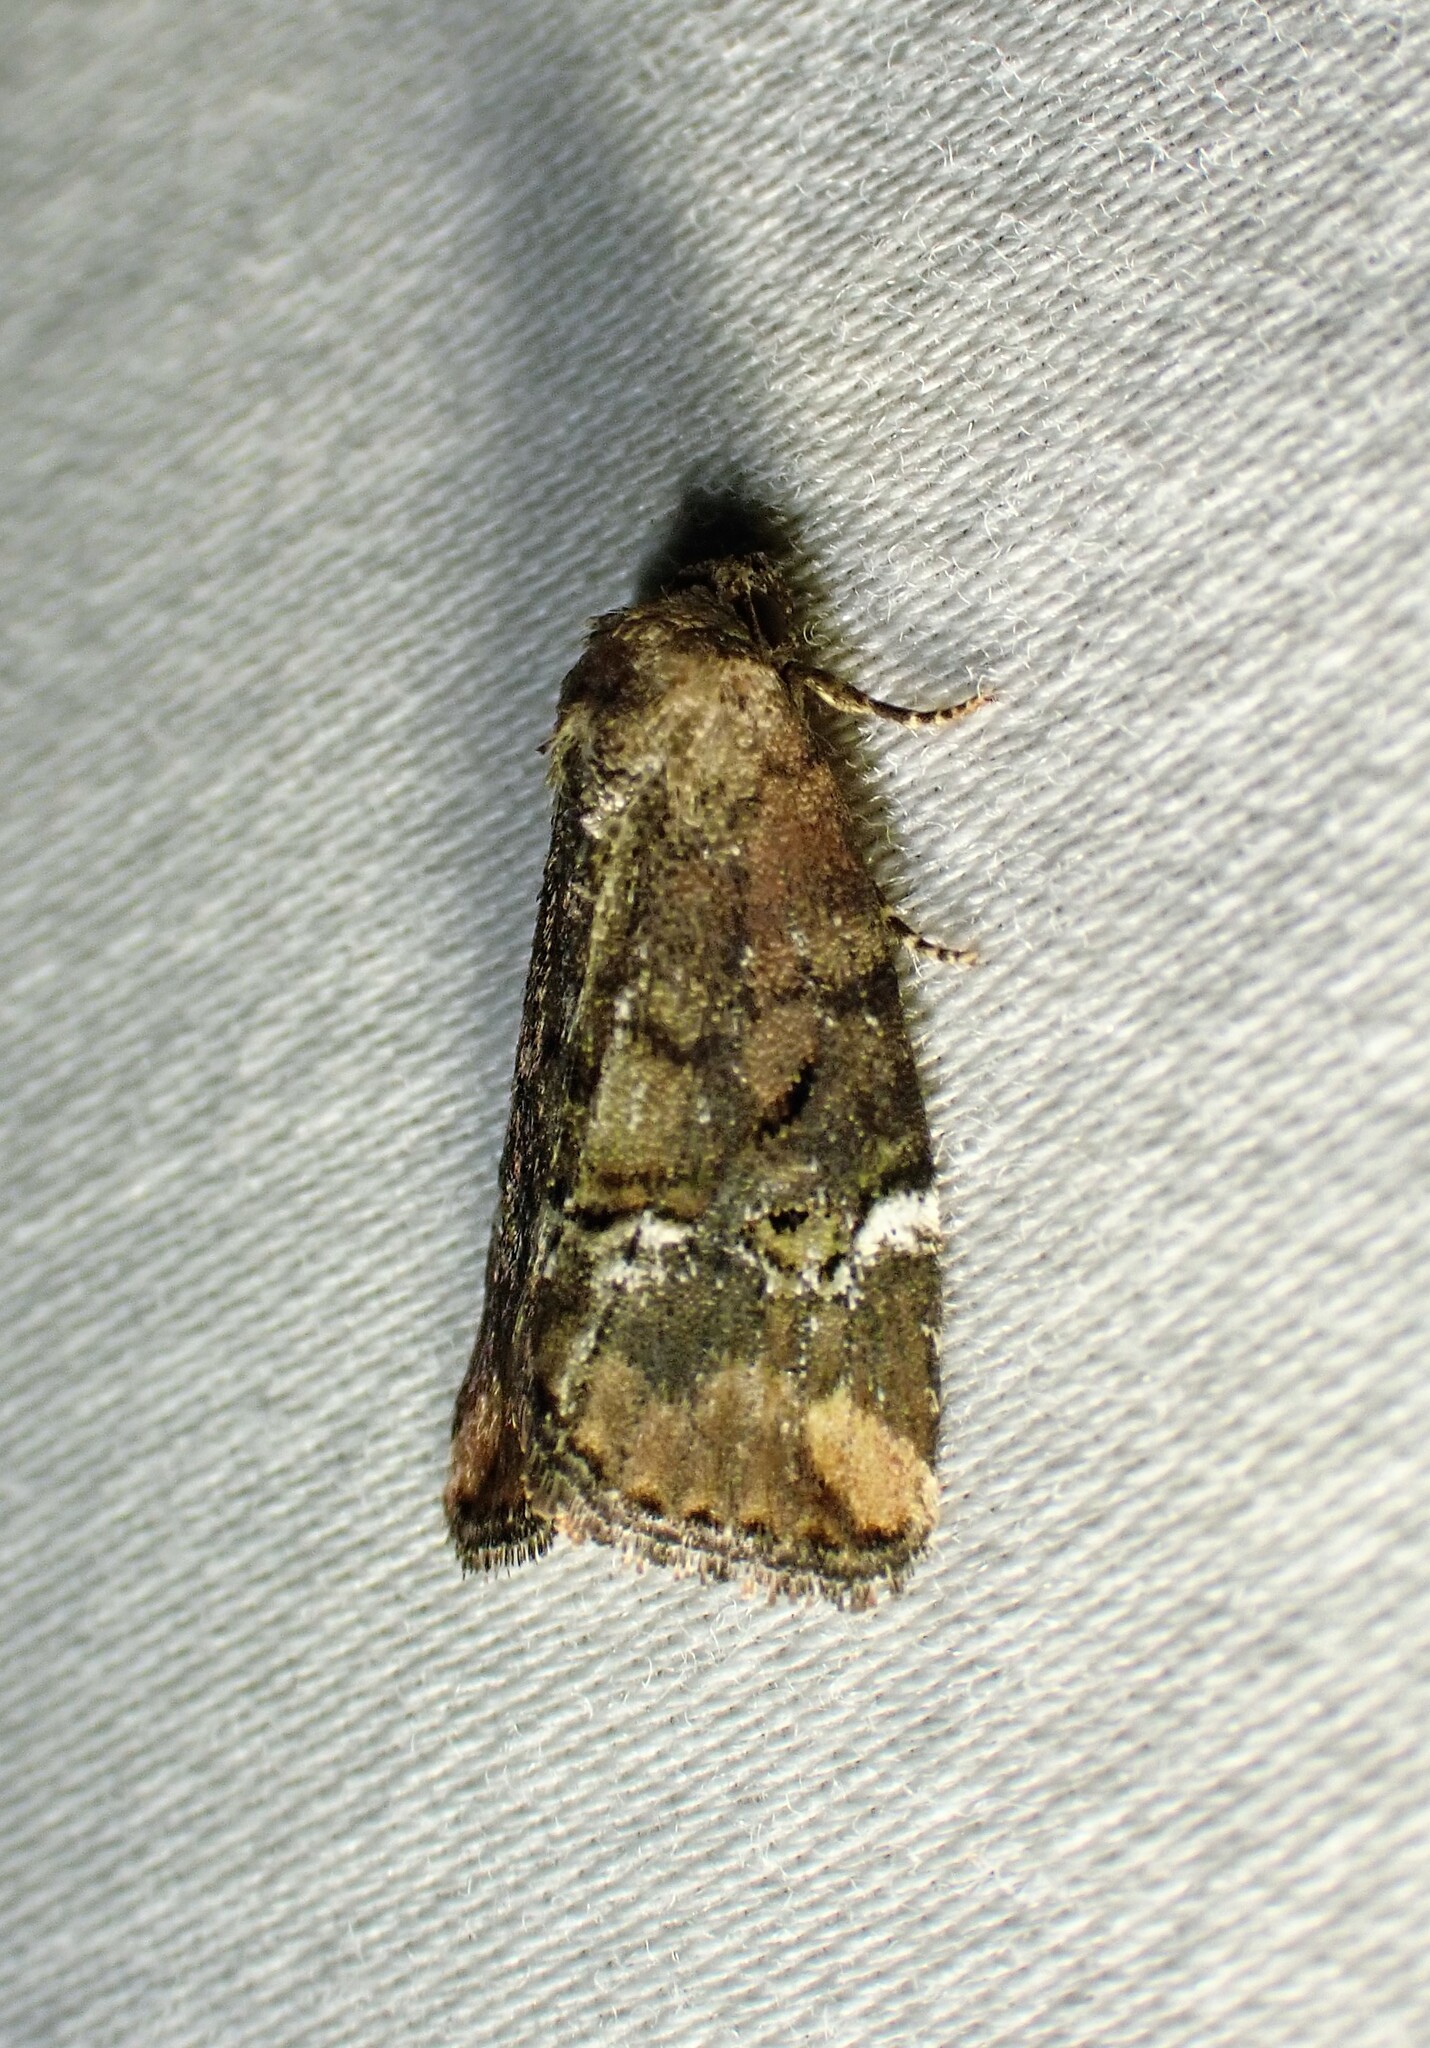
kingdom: Animalia
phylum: Arthropoda
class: Insecta
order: Lepidoptera
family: Noctuidae
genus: Elaphria
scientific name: Elaphria versicolor
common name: Fir harlequin
